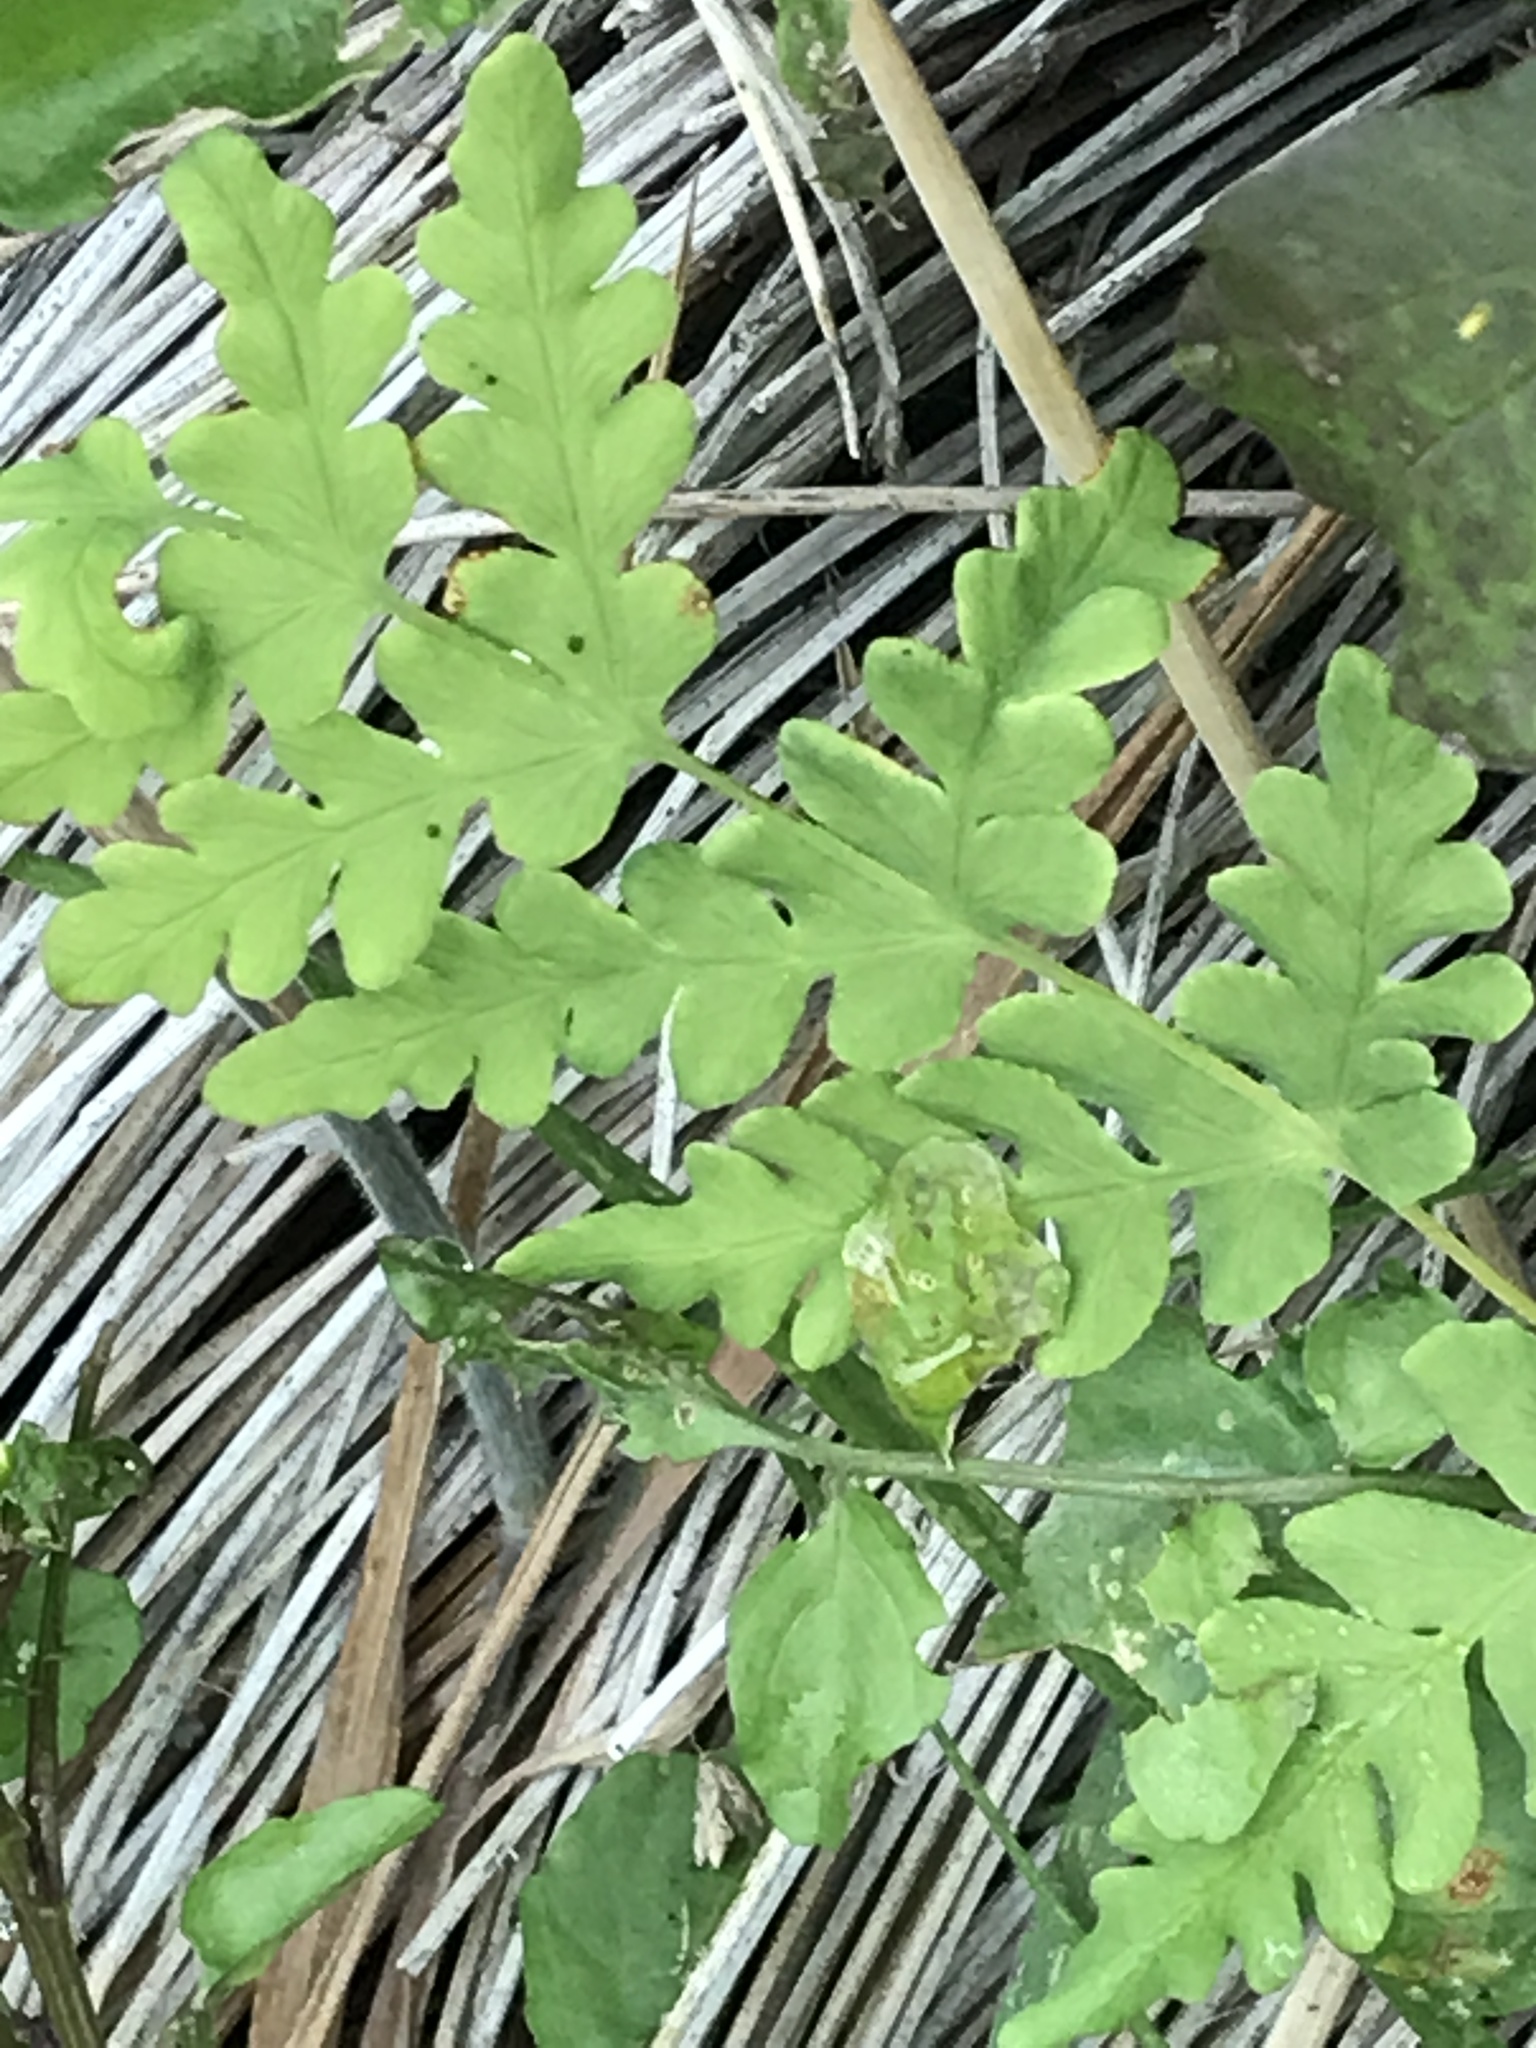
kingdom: Plantae
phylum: Tracheophyta
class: Polypodiopsida
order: Polypodiales
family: Dennstaedtiaceae
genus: Histiopteris
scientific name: Histiopteris incisa
